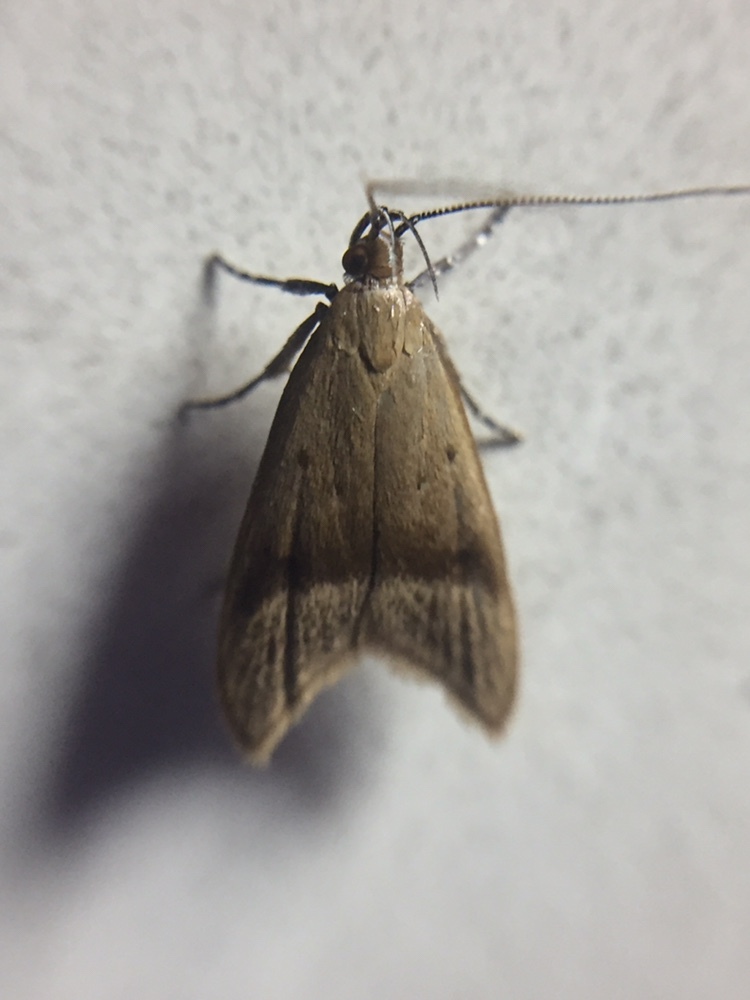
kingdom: Animalia
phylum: Arthropoda
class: Insecta
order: Lepidoptera
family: Oecophoridae
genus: Gymnobathra
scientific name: Gymnobathra hyetodes
